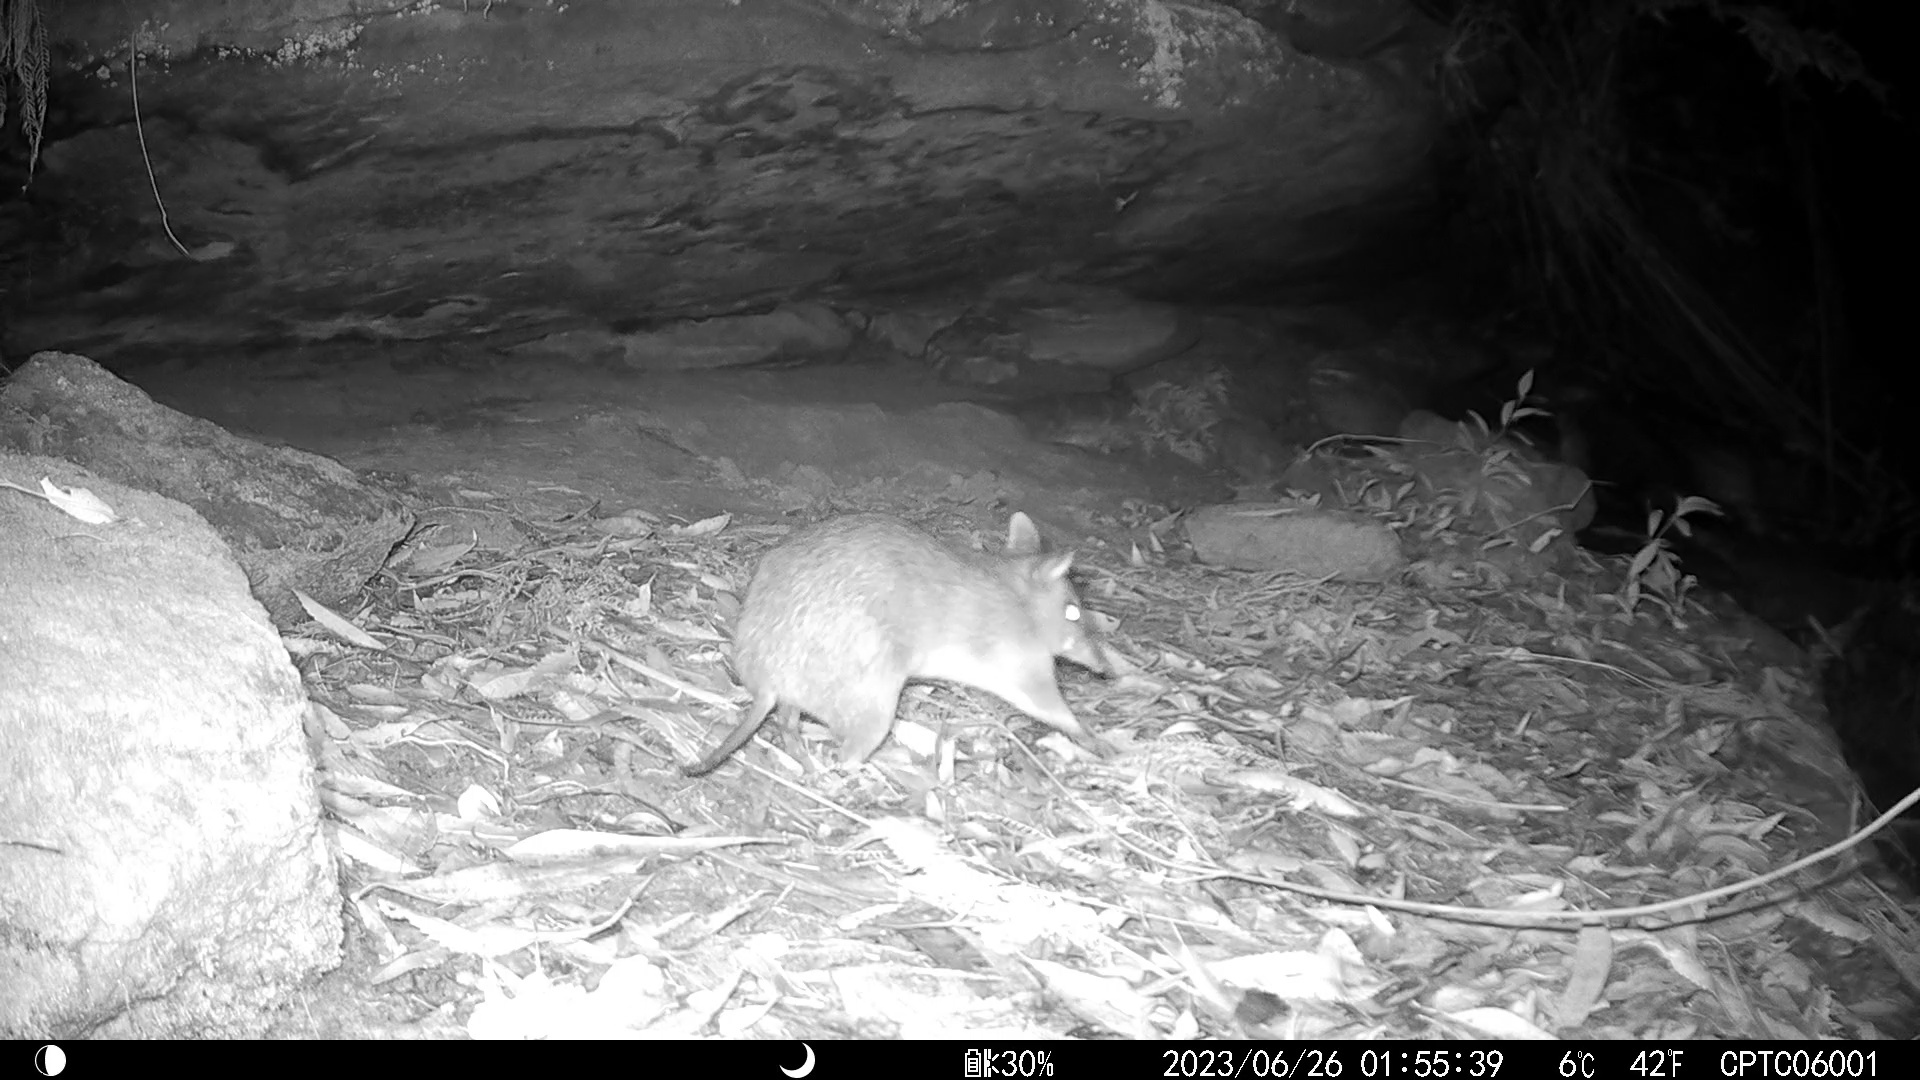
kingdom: Animalia
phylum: Chordata
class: Mammalia
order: Peramelemorphia
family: Peramelidae
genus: Perameles
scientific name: Perameles nasuta
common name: Long-nosed bandicoot
